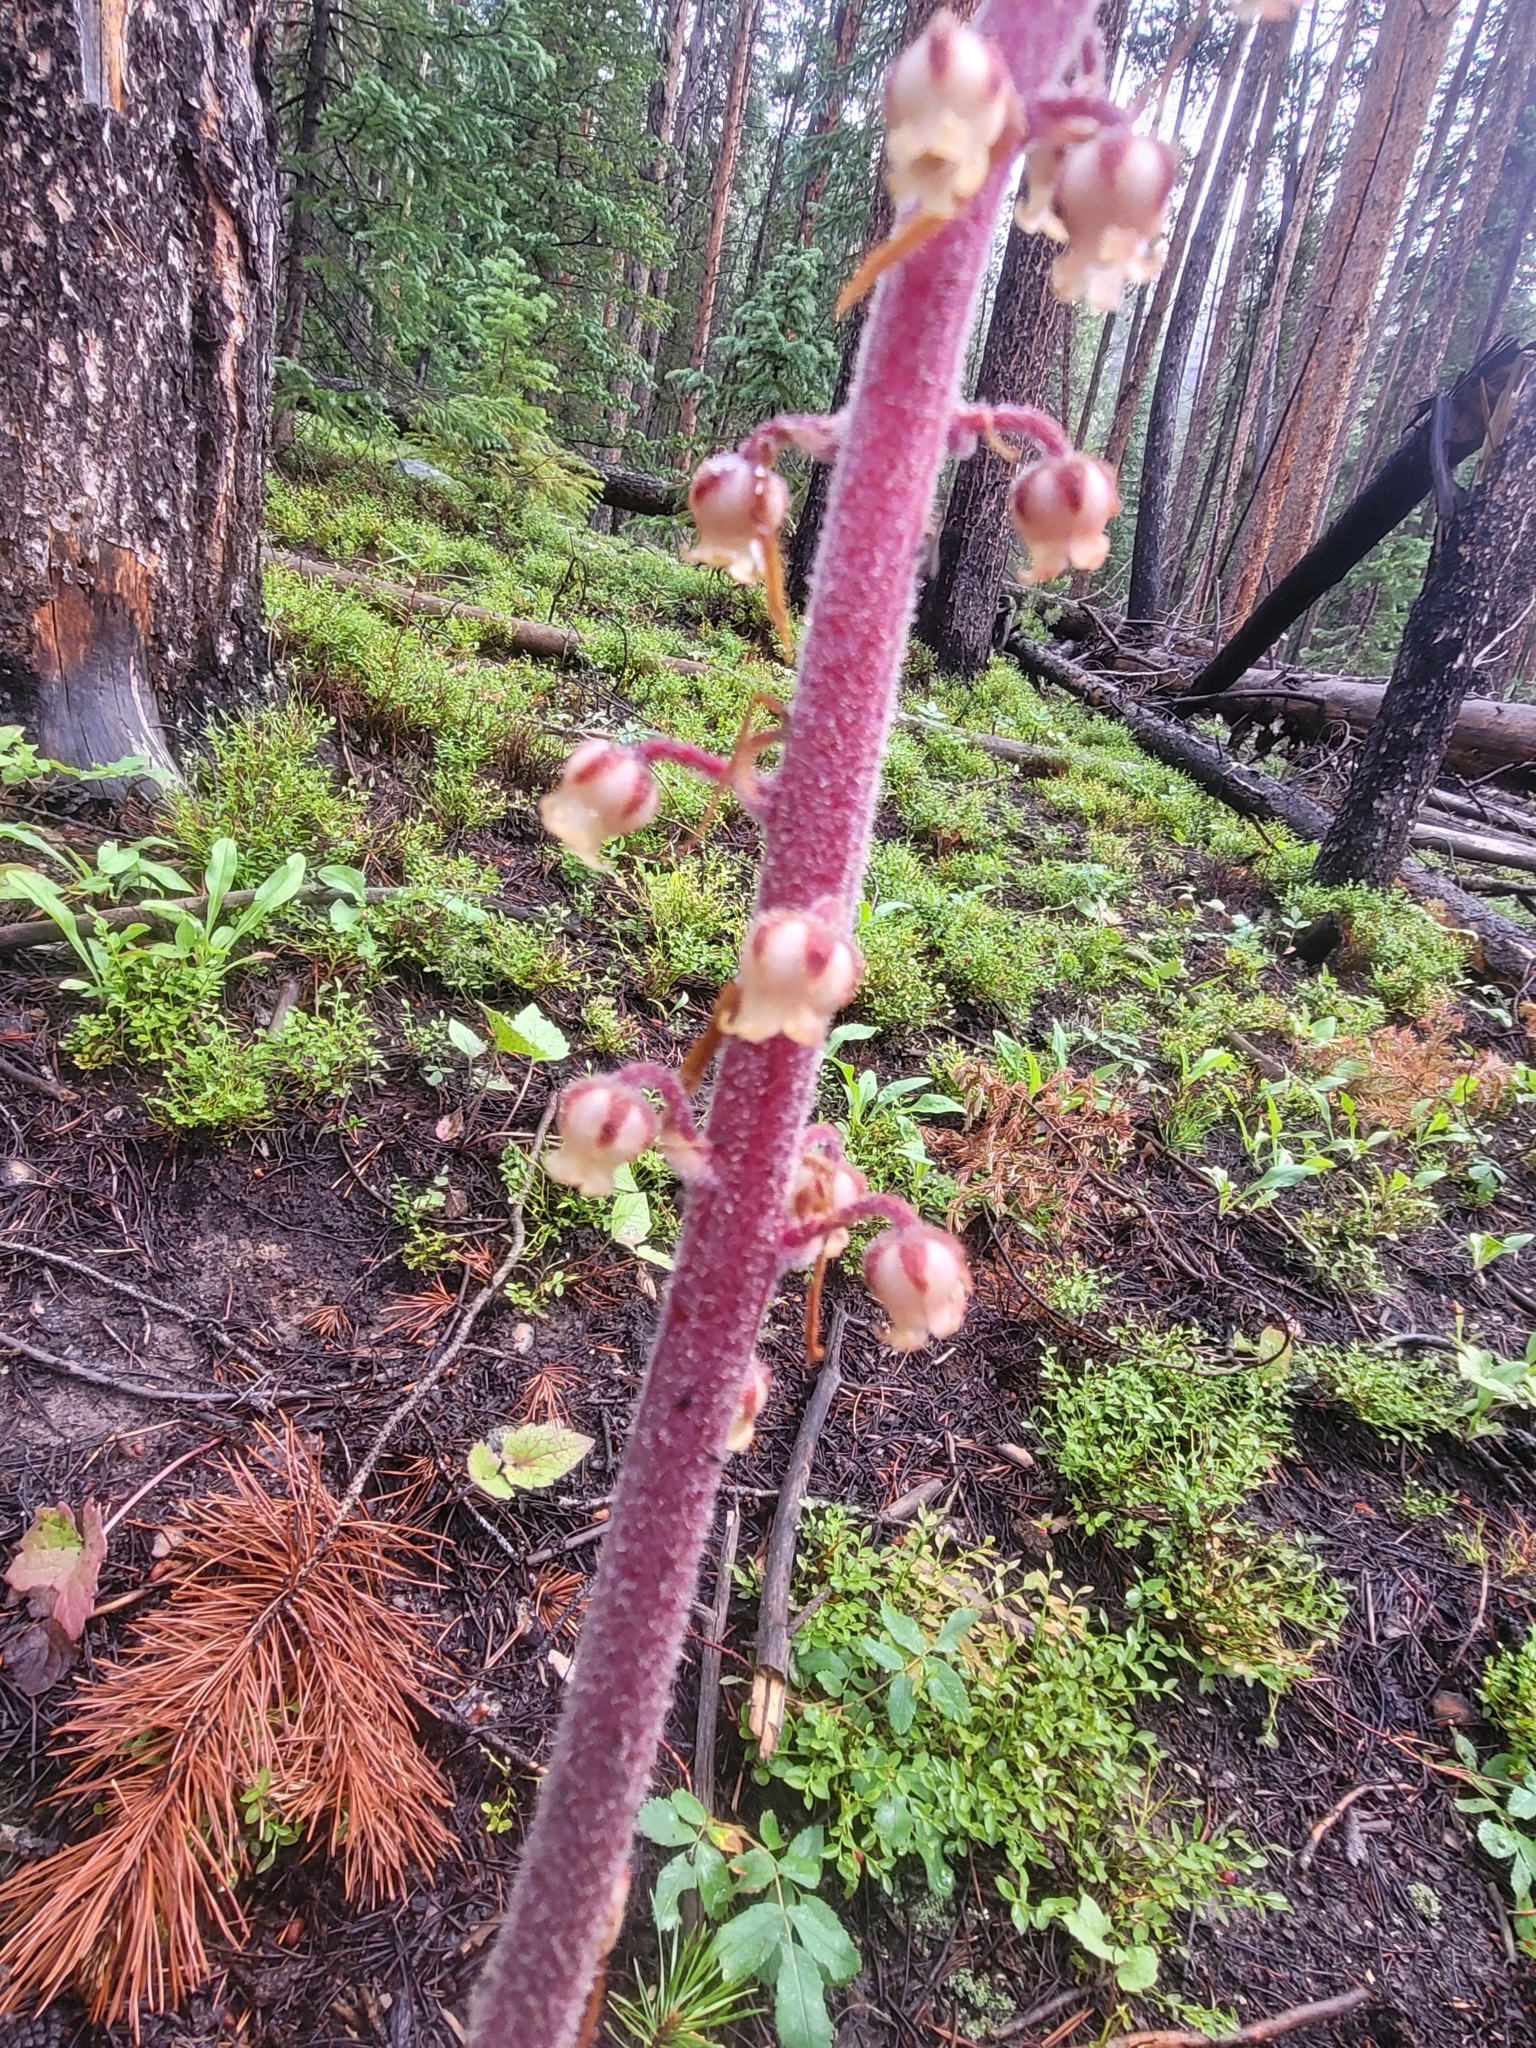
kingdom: Plantae
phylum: Tracheophyta
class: Magnoliopsida
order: Ericales
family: Ericaceae
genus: Pterospora
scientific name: Pterospora andromedea
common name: Giant bird's-nest
